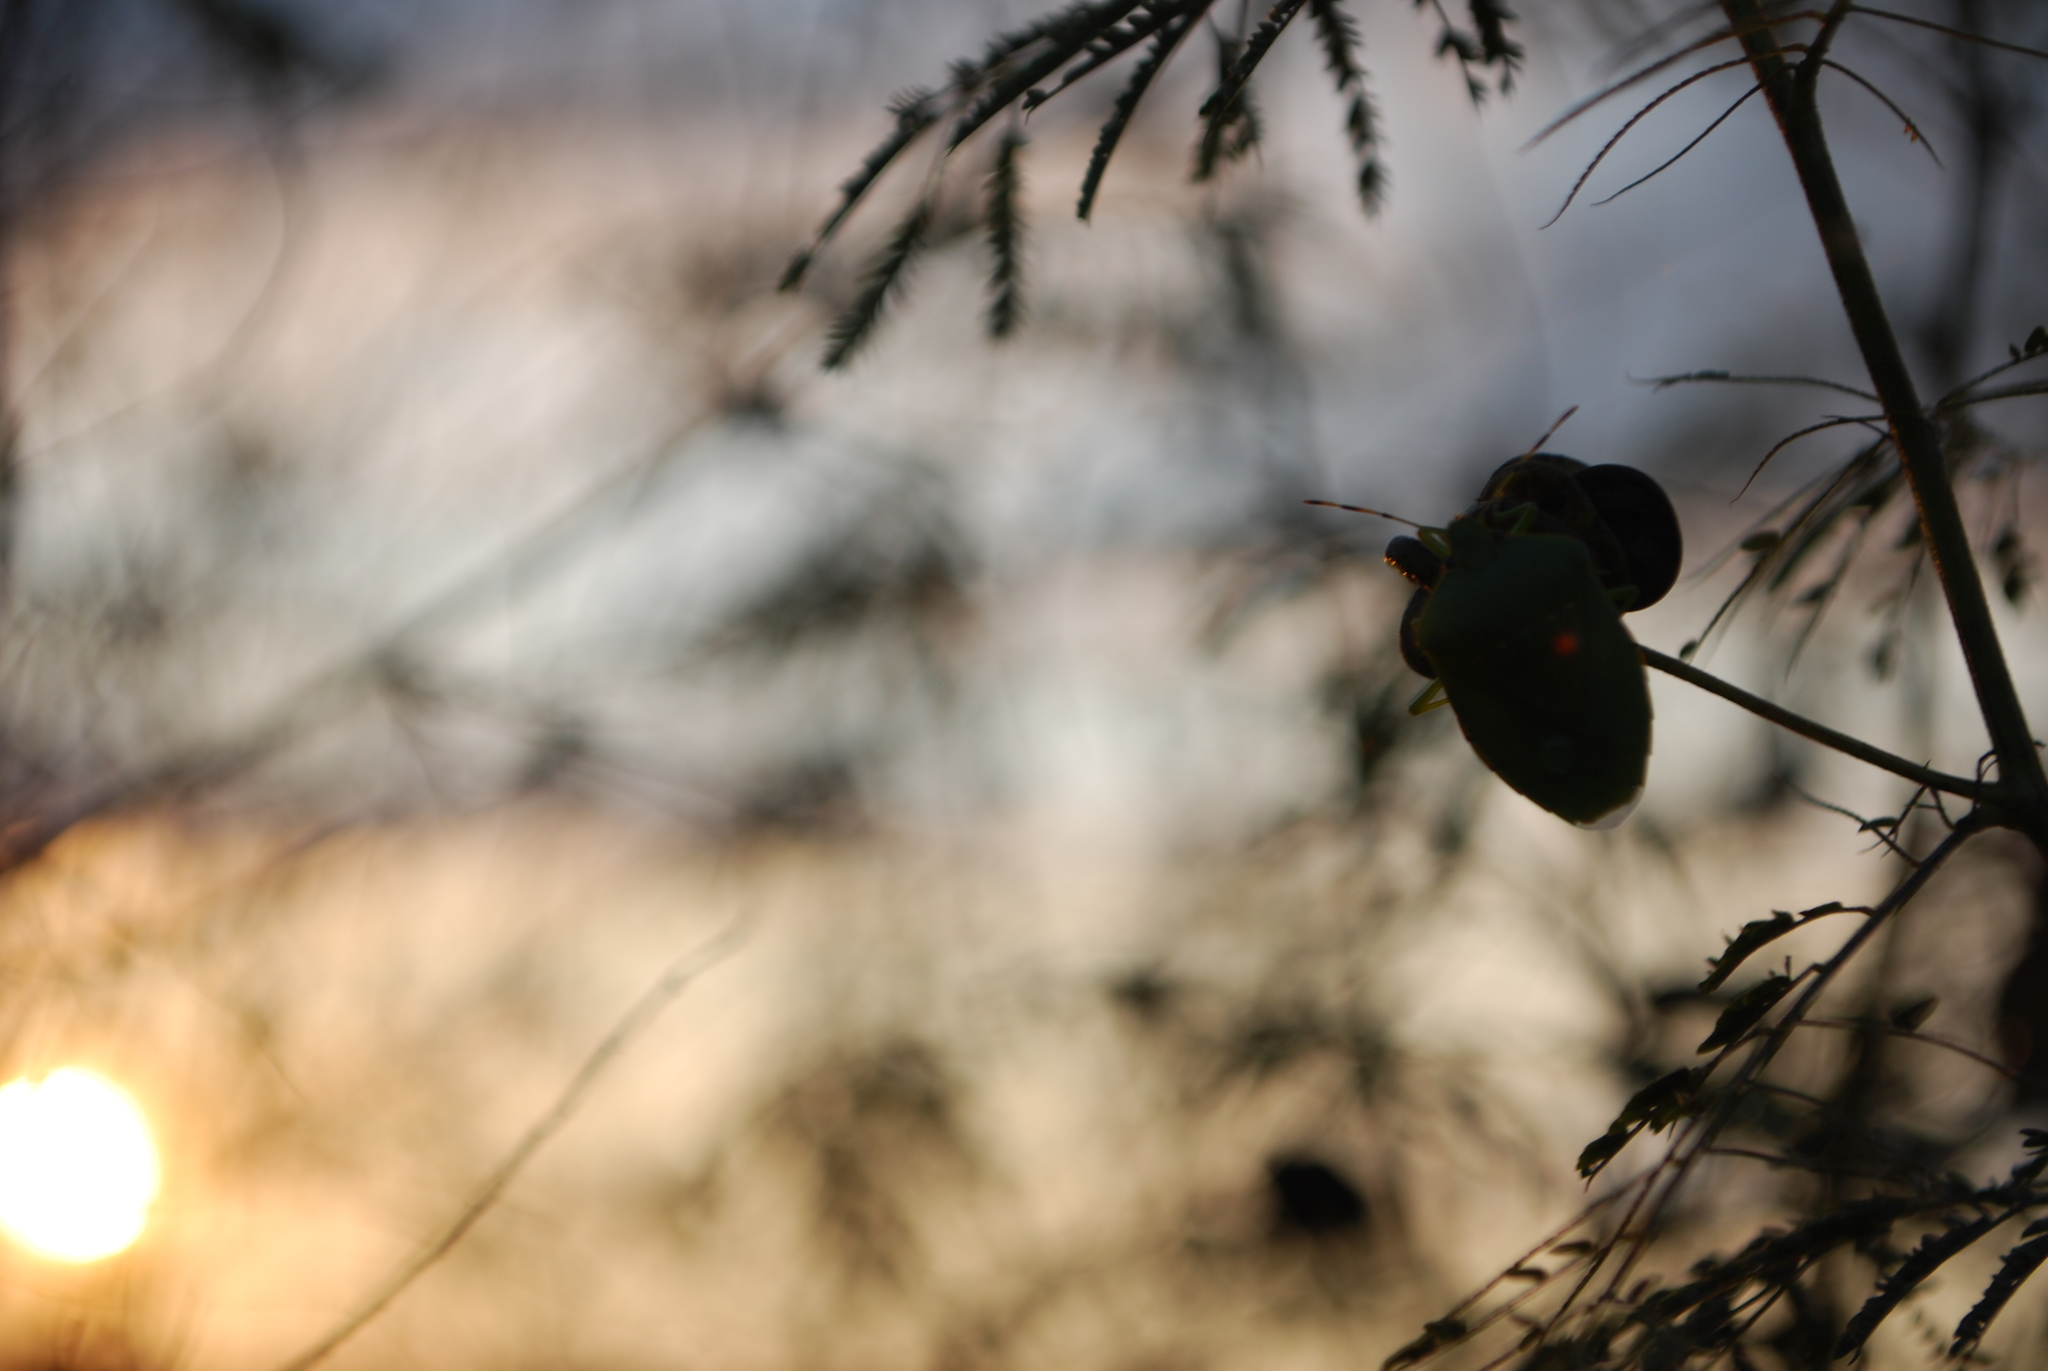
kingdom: Animalia
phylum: Arthropoda
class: Insecta
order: Hemiptera
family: Pentatomidae
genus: Chinavia
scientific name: Chinavia hilaris
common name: Green stink bug
